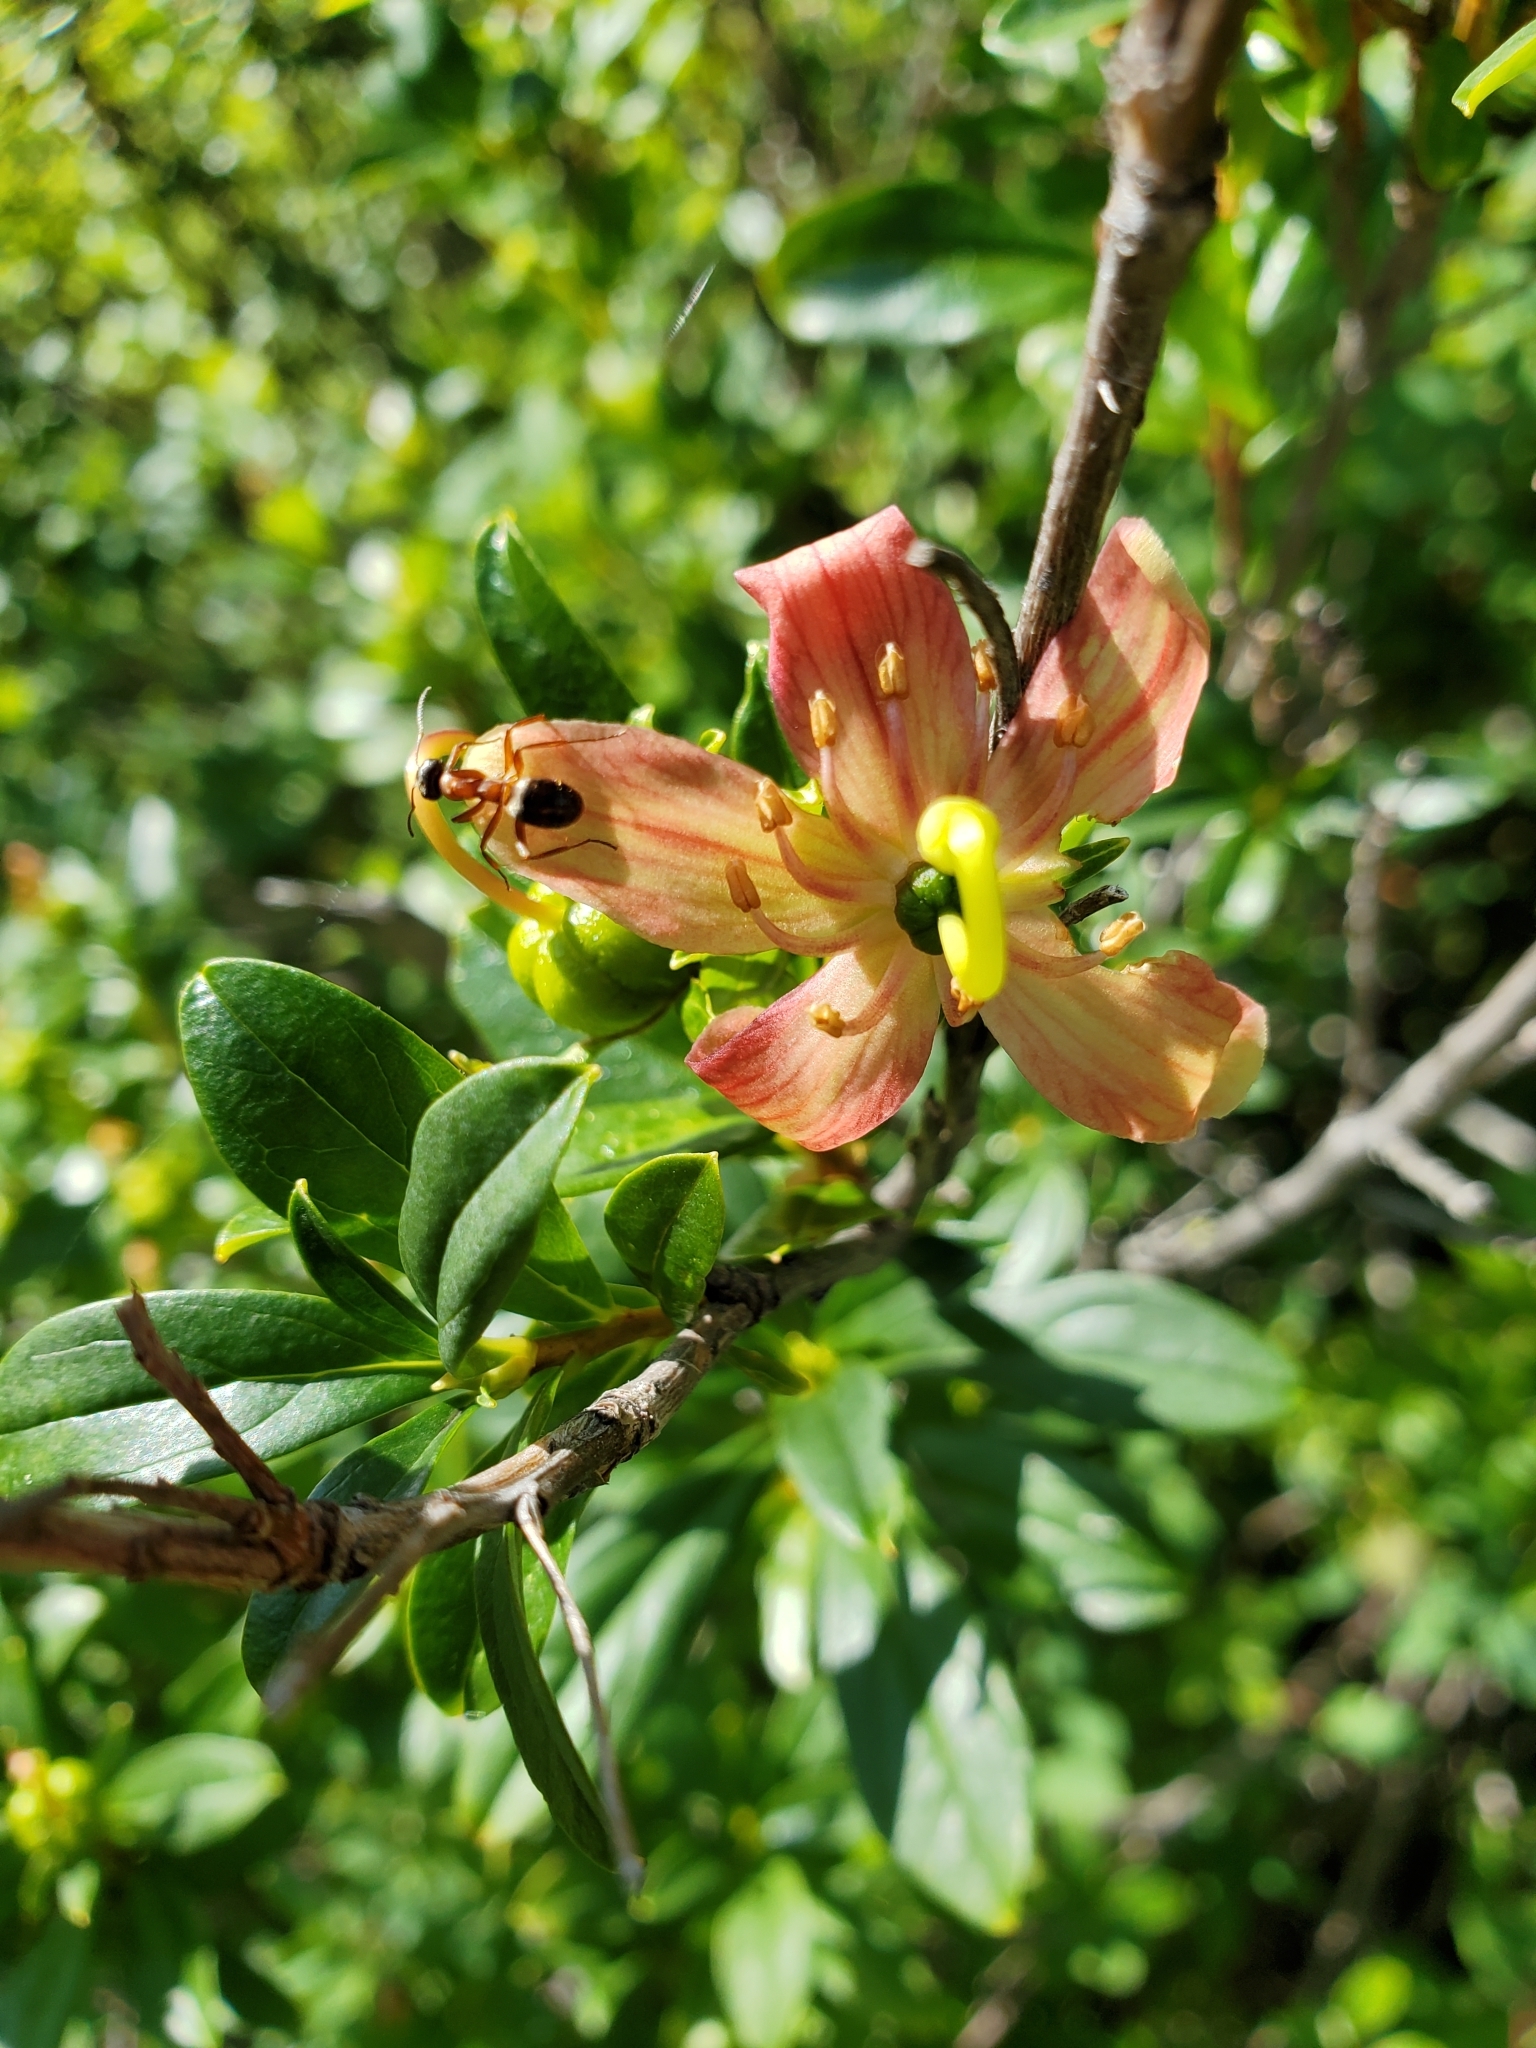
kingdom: Plantae
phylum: Tracheophyta
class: Magnoliopsida
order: Ericales
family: Ericaceae
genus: Elliottia
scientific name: Elliottia pyroliflora
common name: Copperbush
